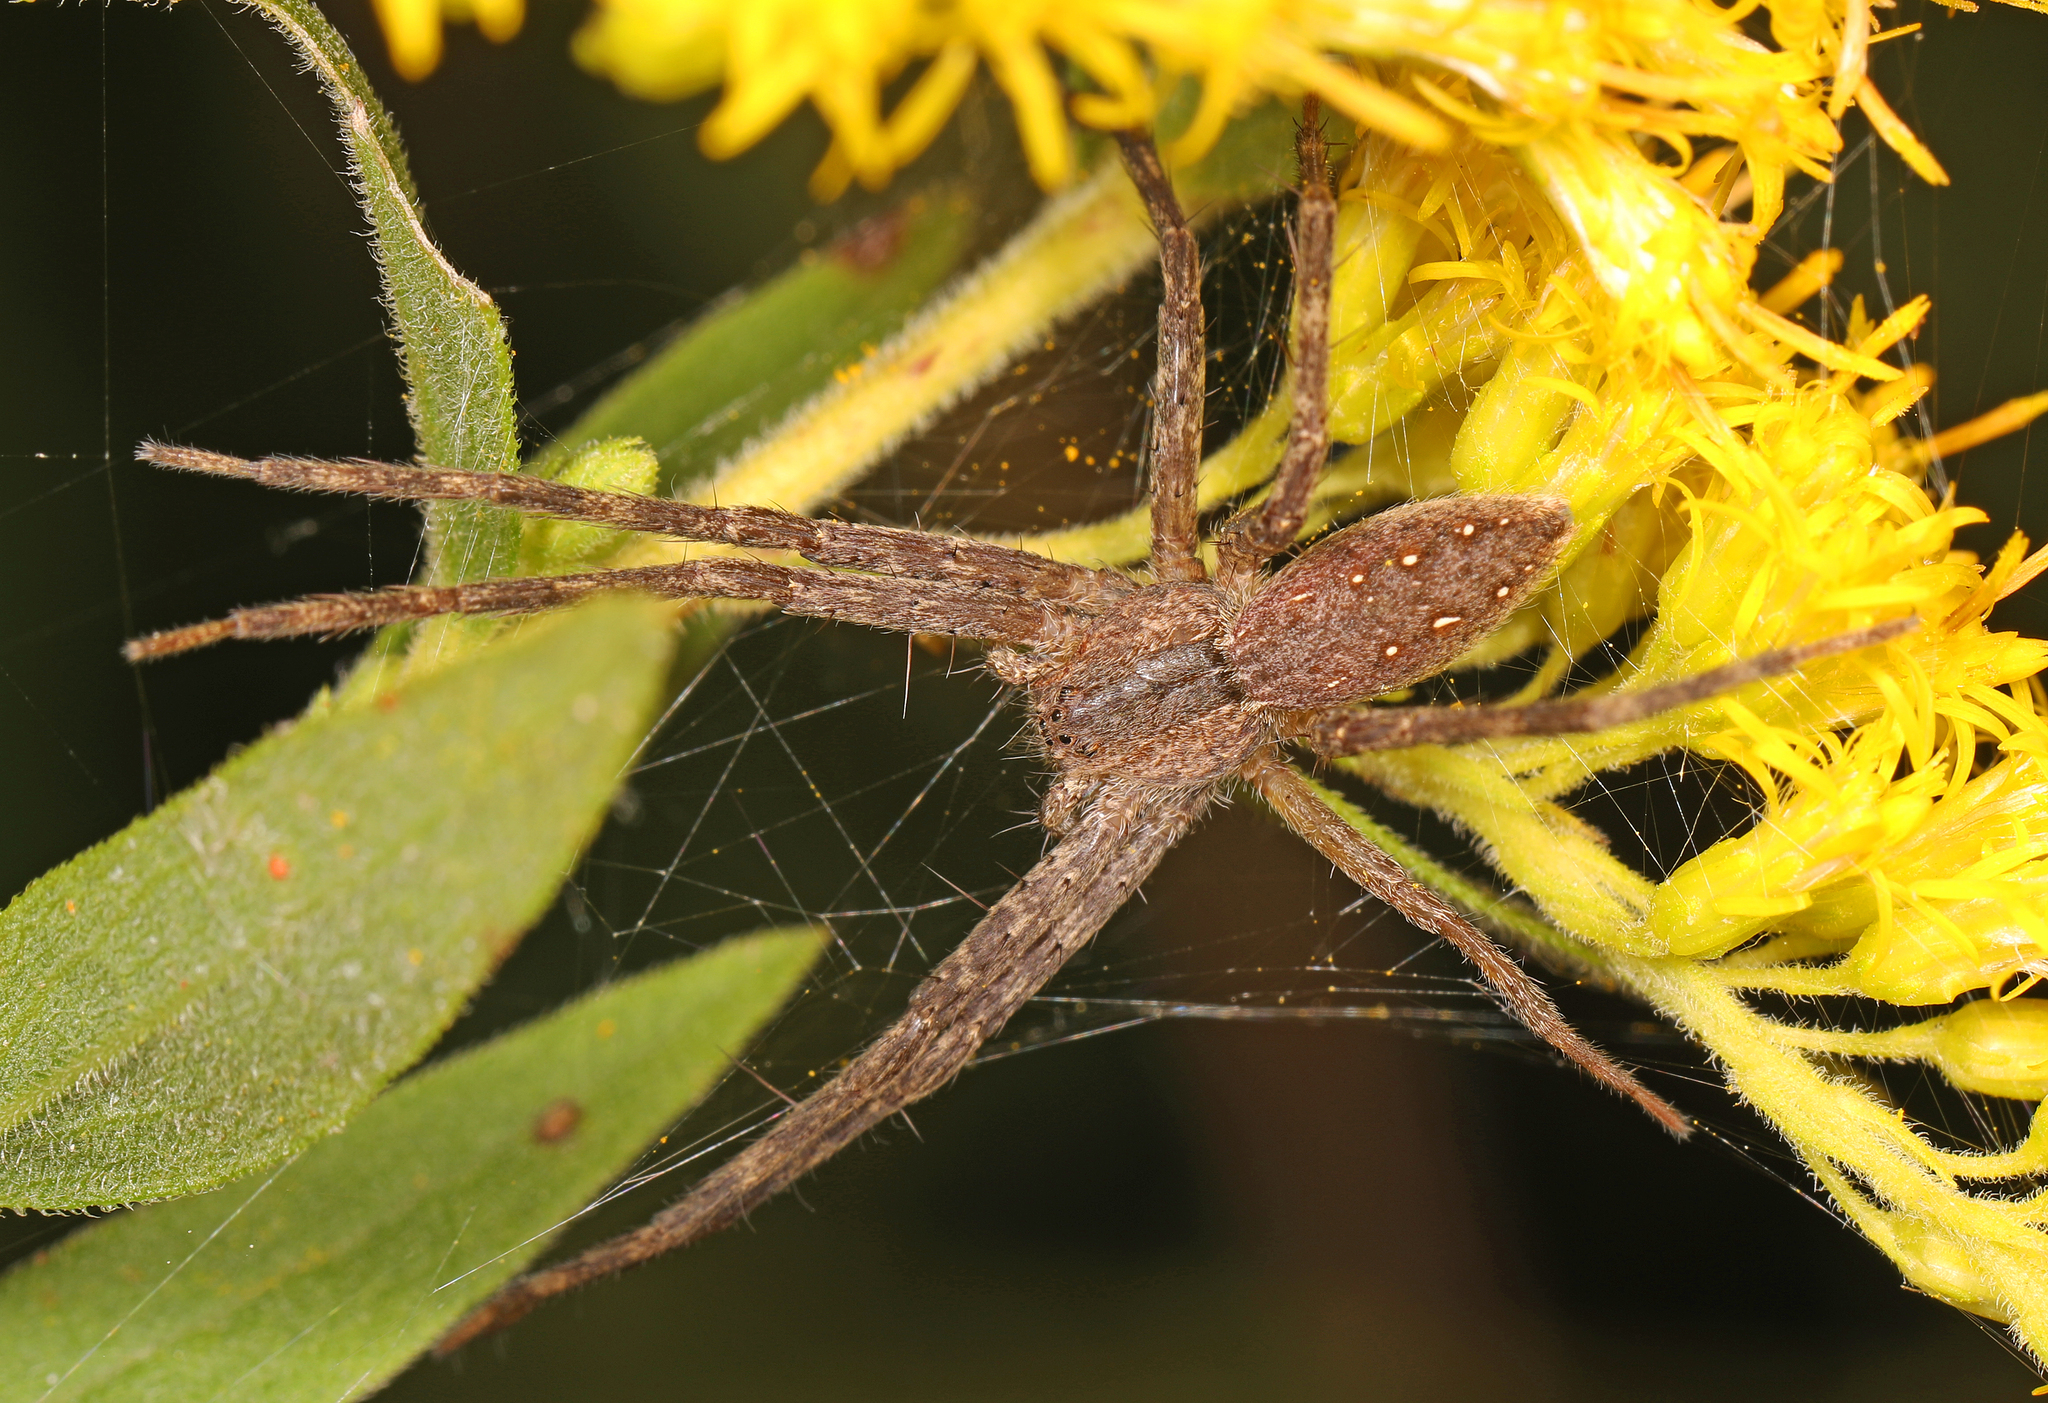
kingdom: Animalia
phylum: Arthropoda
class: Arachnida
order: Araneae
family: Pisauridae
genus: Pisaurina
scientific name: Pisaurina mira
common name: American nursery web spider
